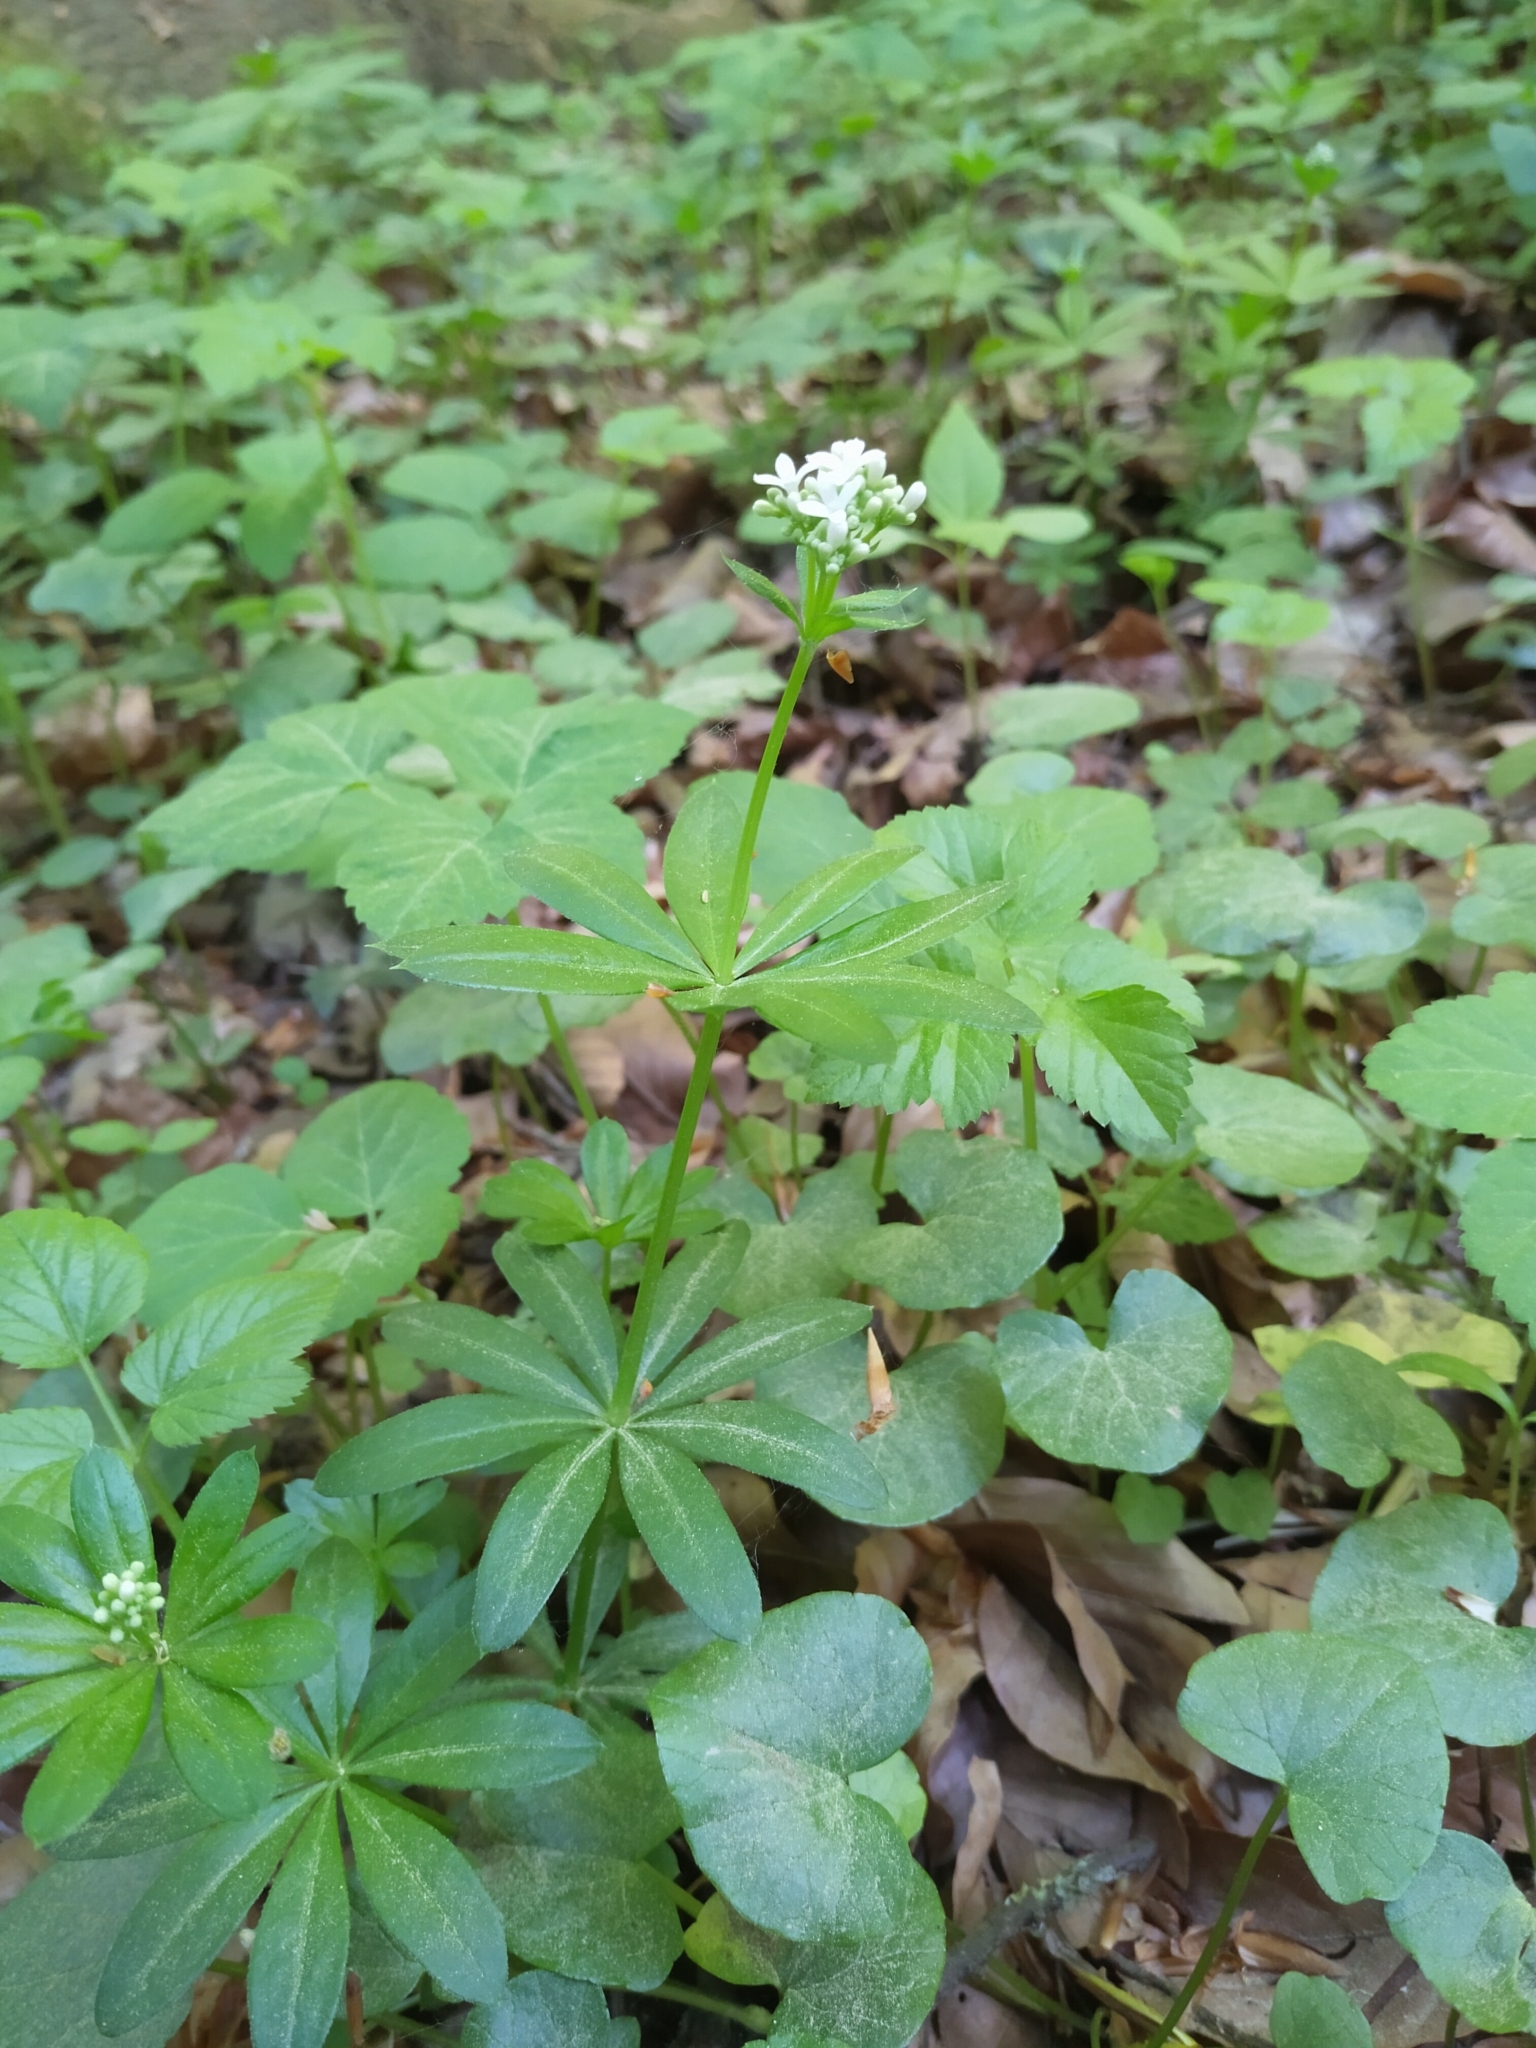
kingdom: Plantae
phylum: Tracheophyta
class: Magnoliopsida
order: Gentianales
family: Rubiaceae
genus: Galium
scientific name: Galium odoratum
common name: Sweet woodruff
